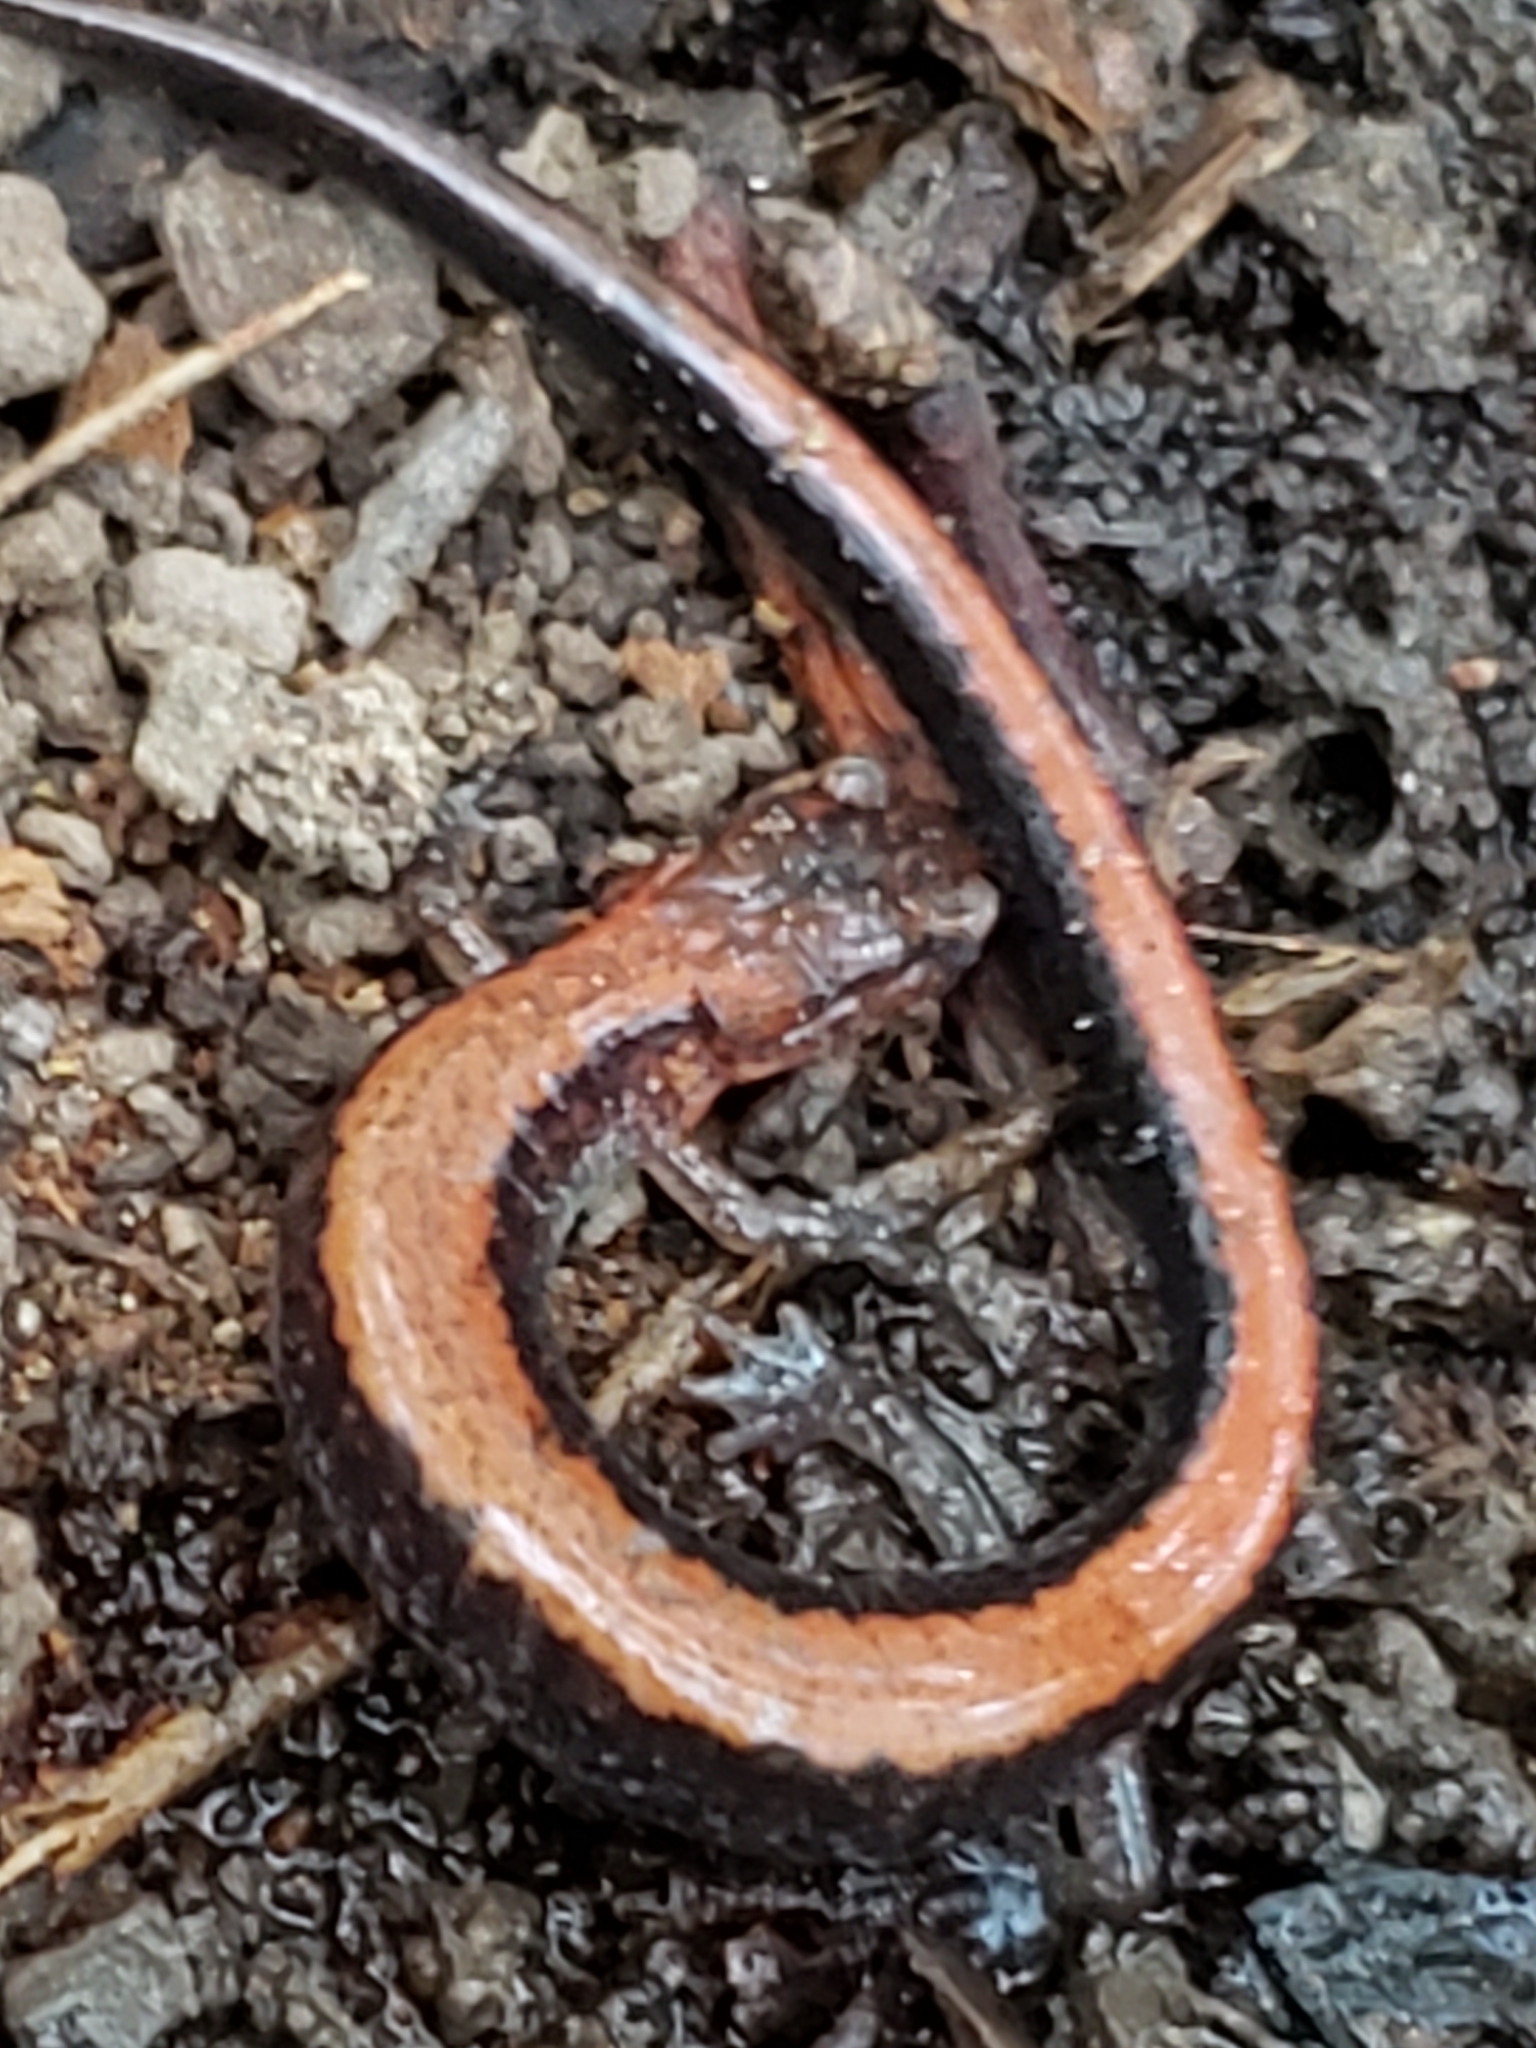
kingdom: Animalia
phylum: Chordata
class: Amphibia
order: Caudata
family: Plethodontidae
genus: Plethodon
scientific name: Plethodon cinereus
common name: Redback salamander
